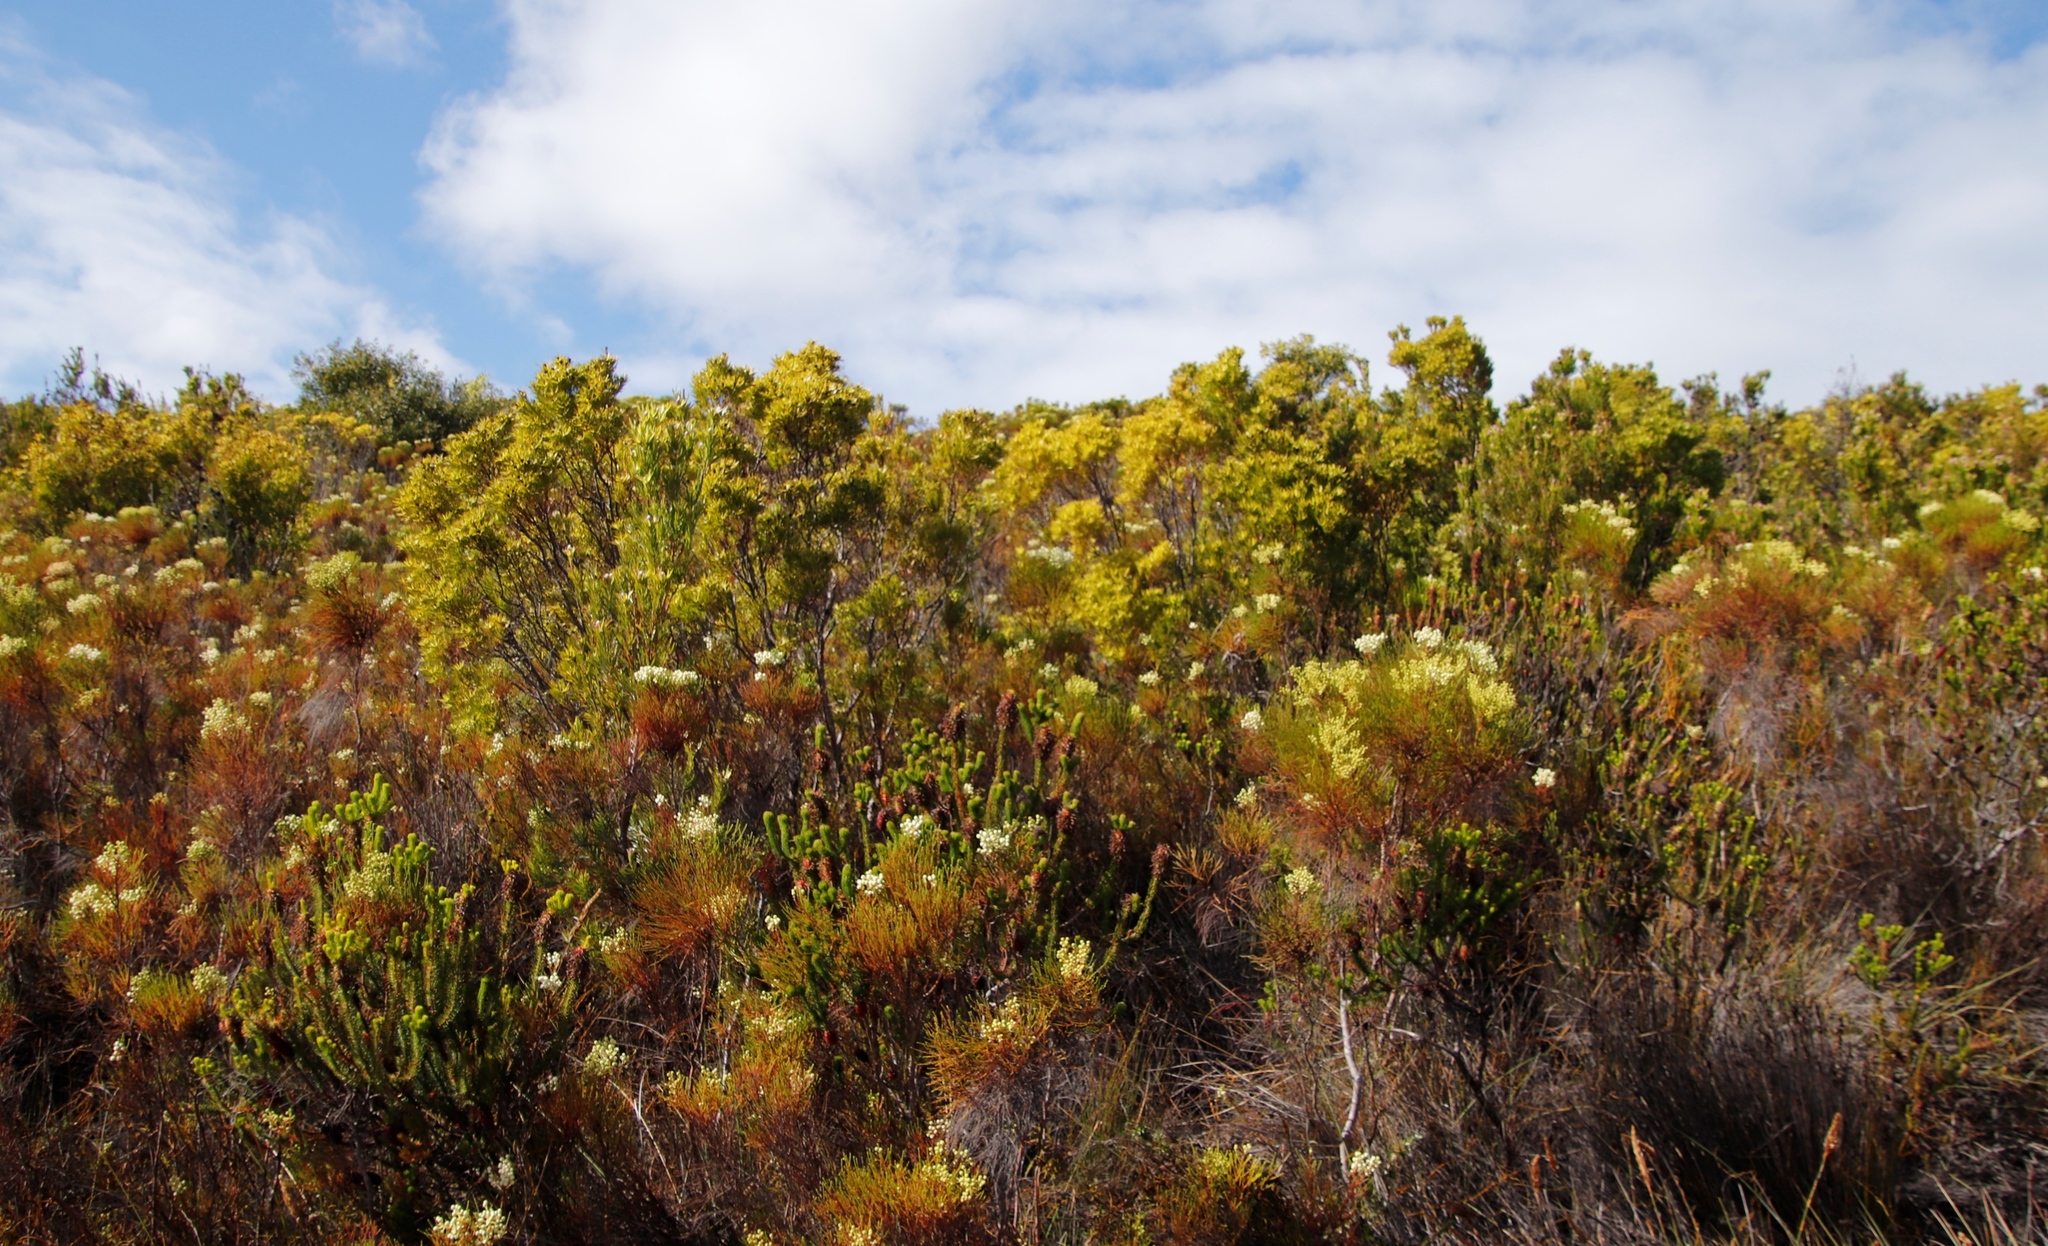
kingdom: Plantae
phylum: Tracheophyta
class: Magnoliopsida
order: Proteales
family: Proteaceae
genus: Leucadendron
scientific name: Leucadendron xanthoconus
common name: Sickle-leaf conebush
